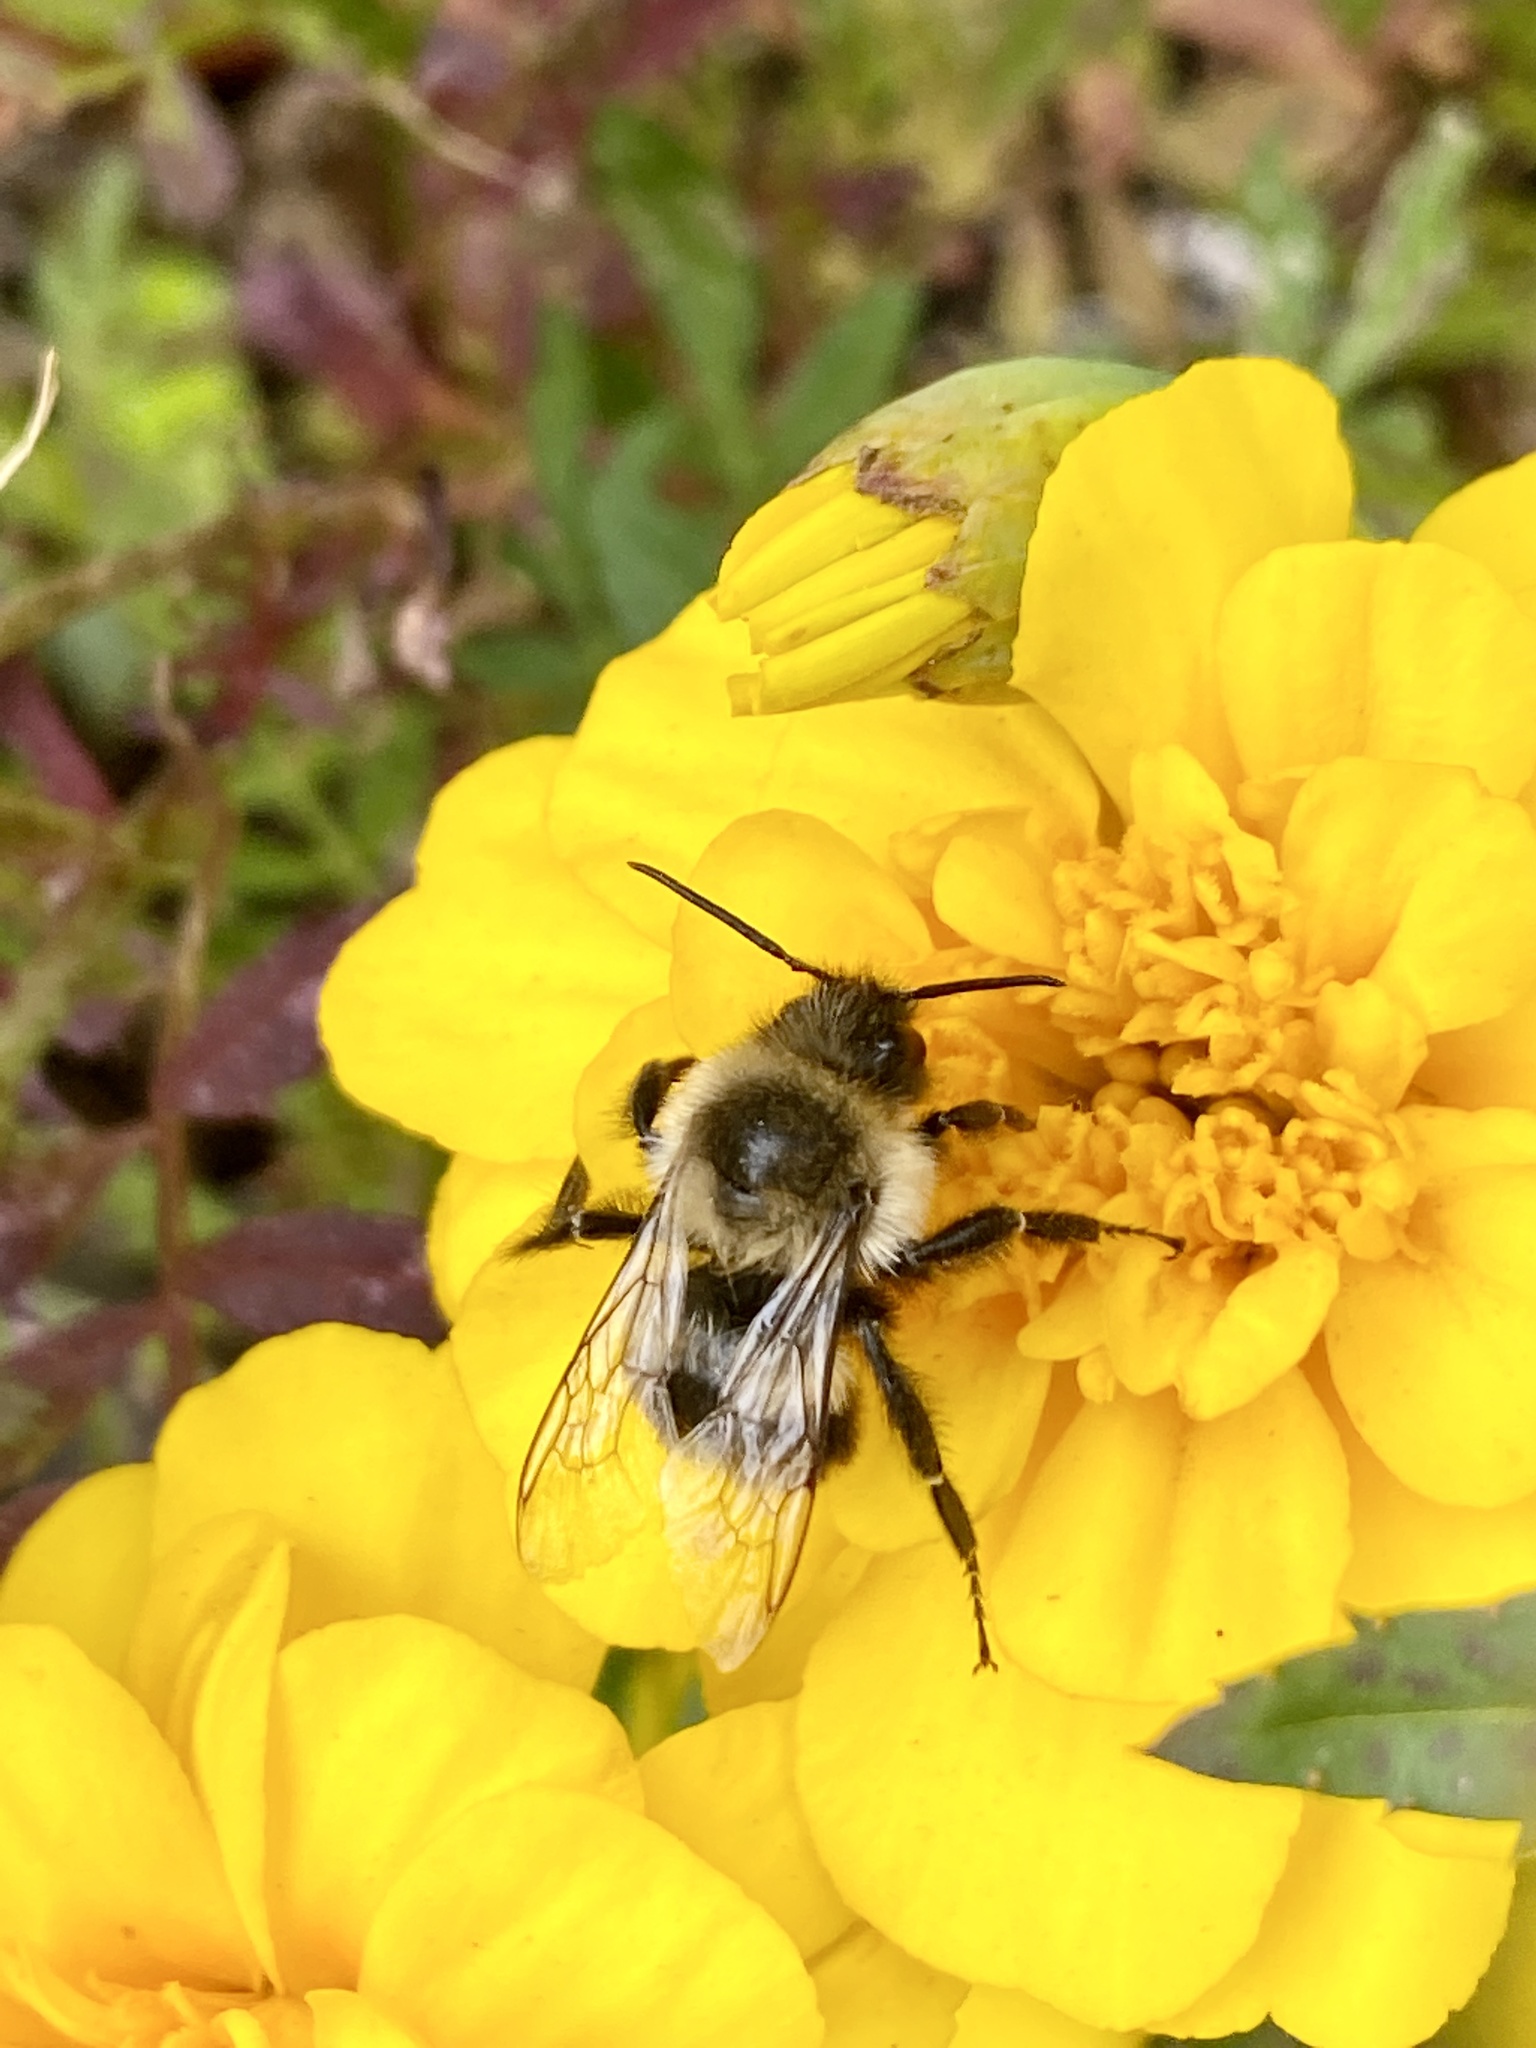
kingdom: Animalia
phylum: Arthropoda
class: Insecta
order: Hymenoptera
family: Apidae
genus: Bombus
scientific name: Bombus impatiens
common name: Common eastern bumble bee
